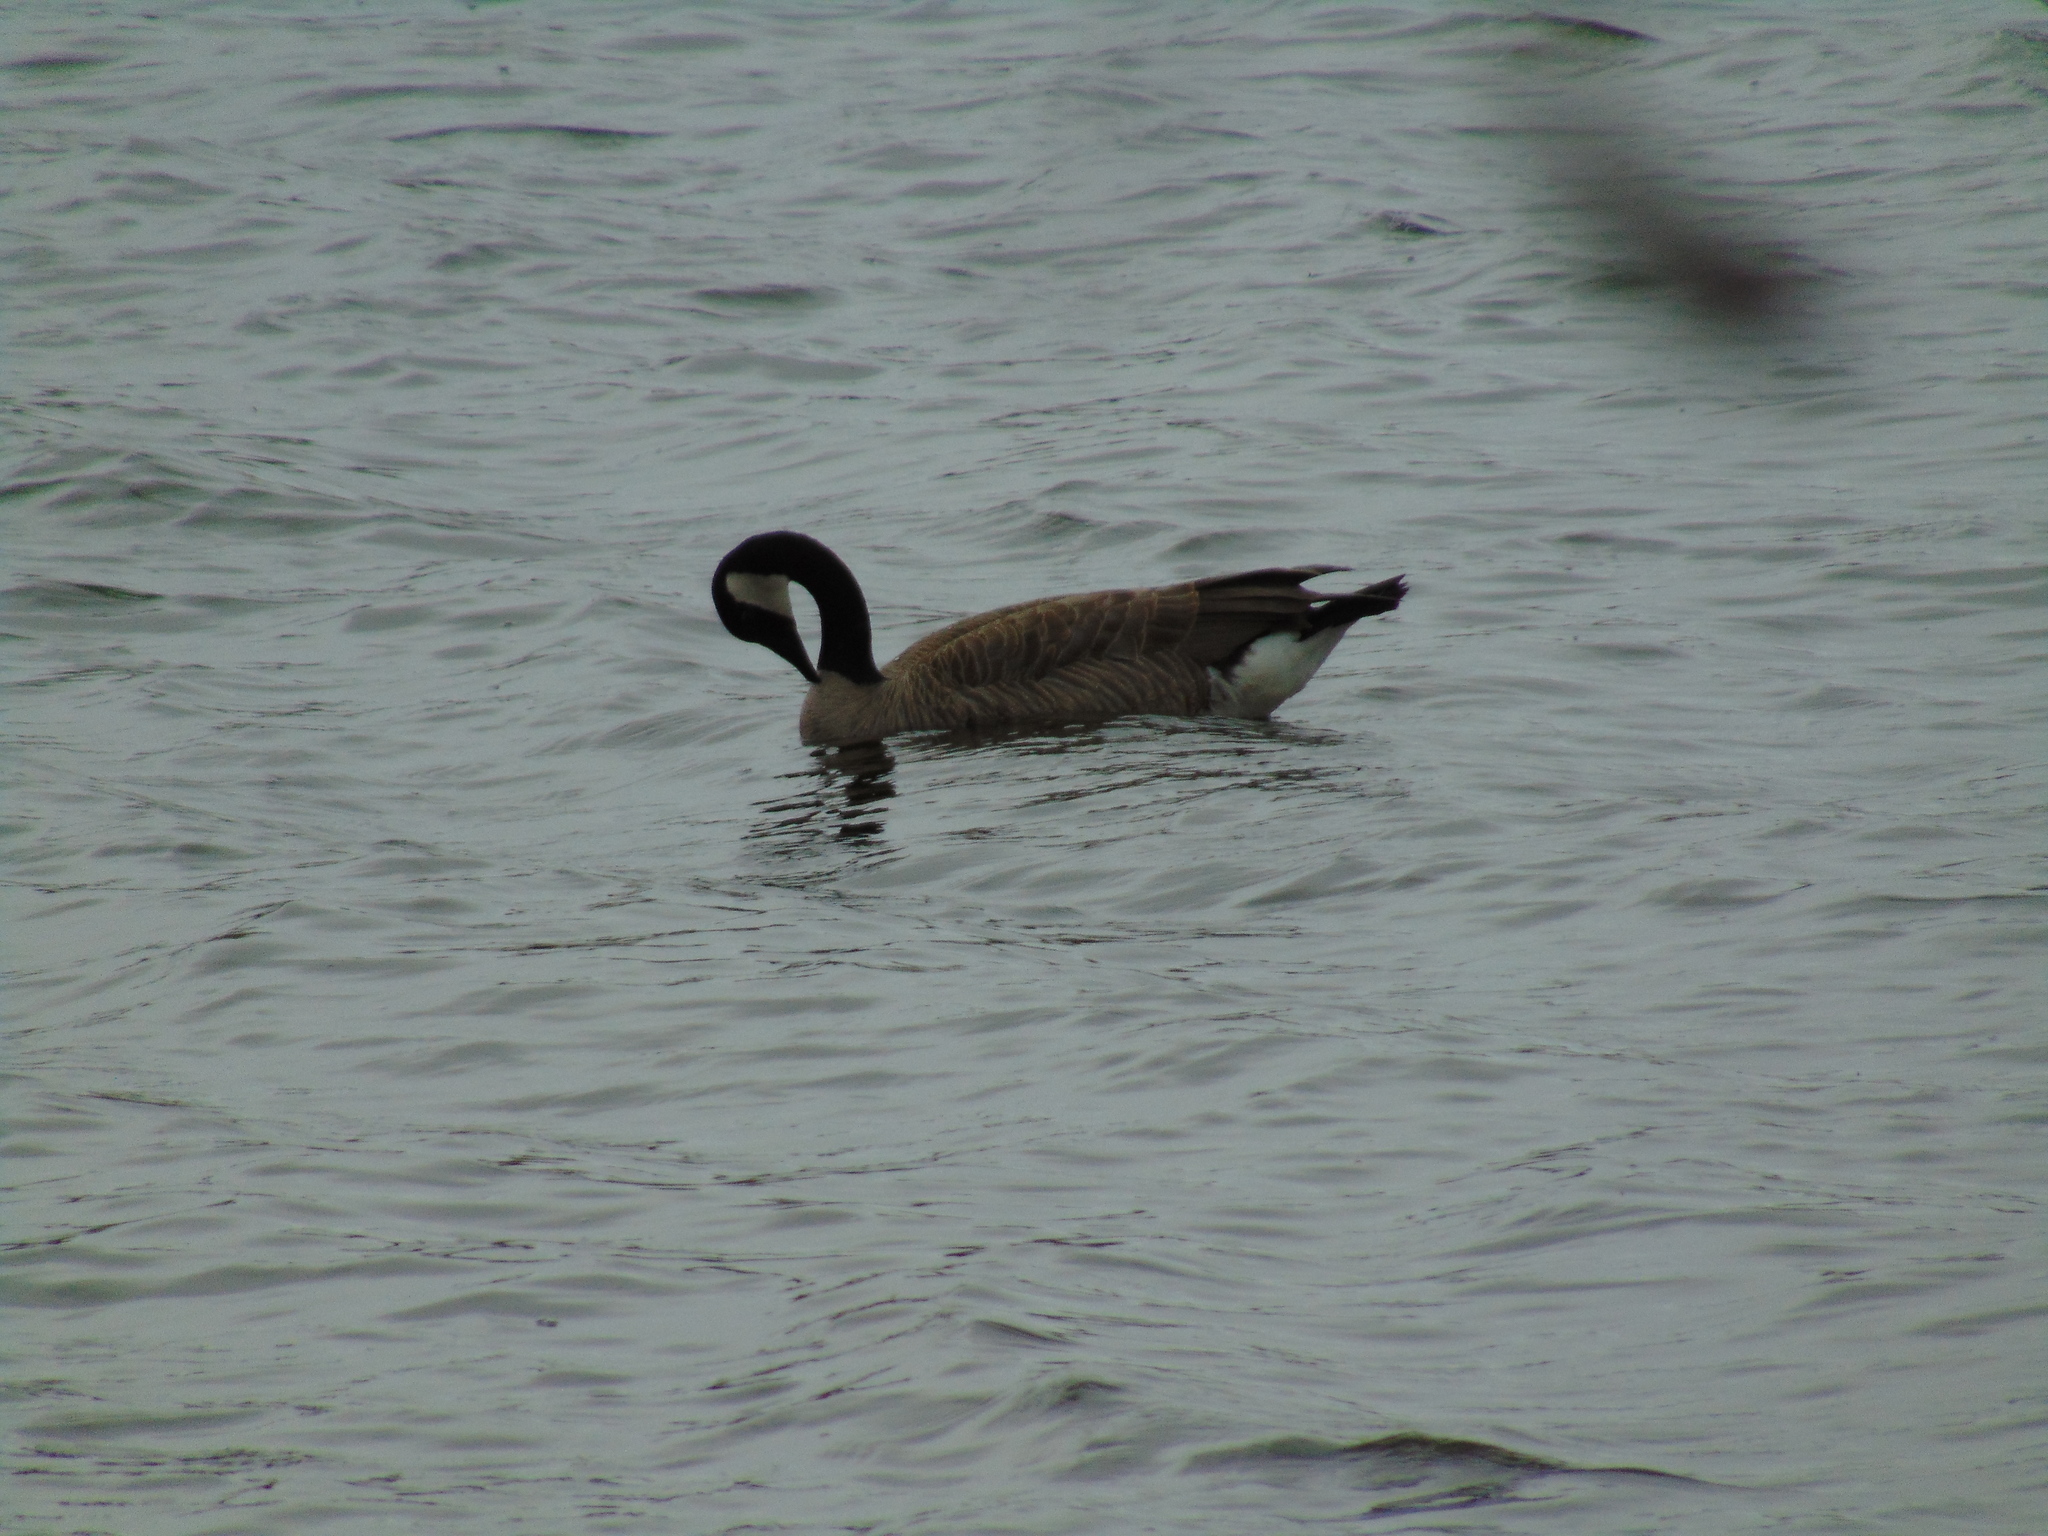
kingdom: Animalia
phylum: Chordata
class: Aves
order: Anseriformes
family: Anatidae
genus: Branta
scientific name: Branta canadensis
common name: Canada goose
